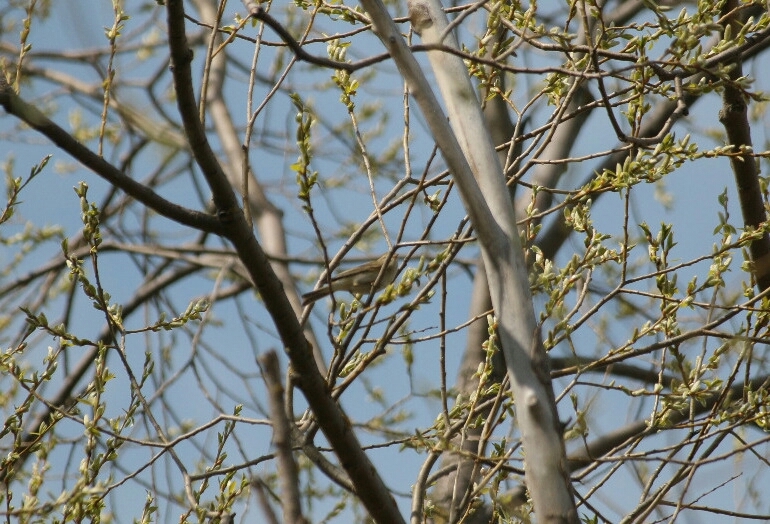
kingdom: Animalia
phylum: Chordata
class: Aves
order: Passeriformes
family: Phylloscopidae
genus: Phylloscopus
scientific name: Phylloscopus trochilus
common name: Willow warbler
